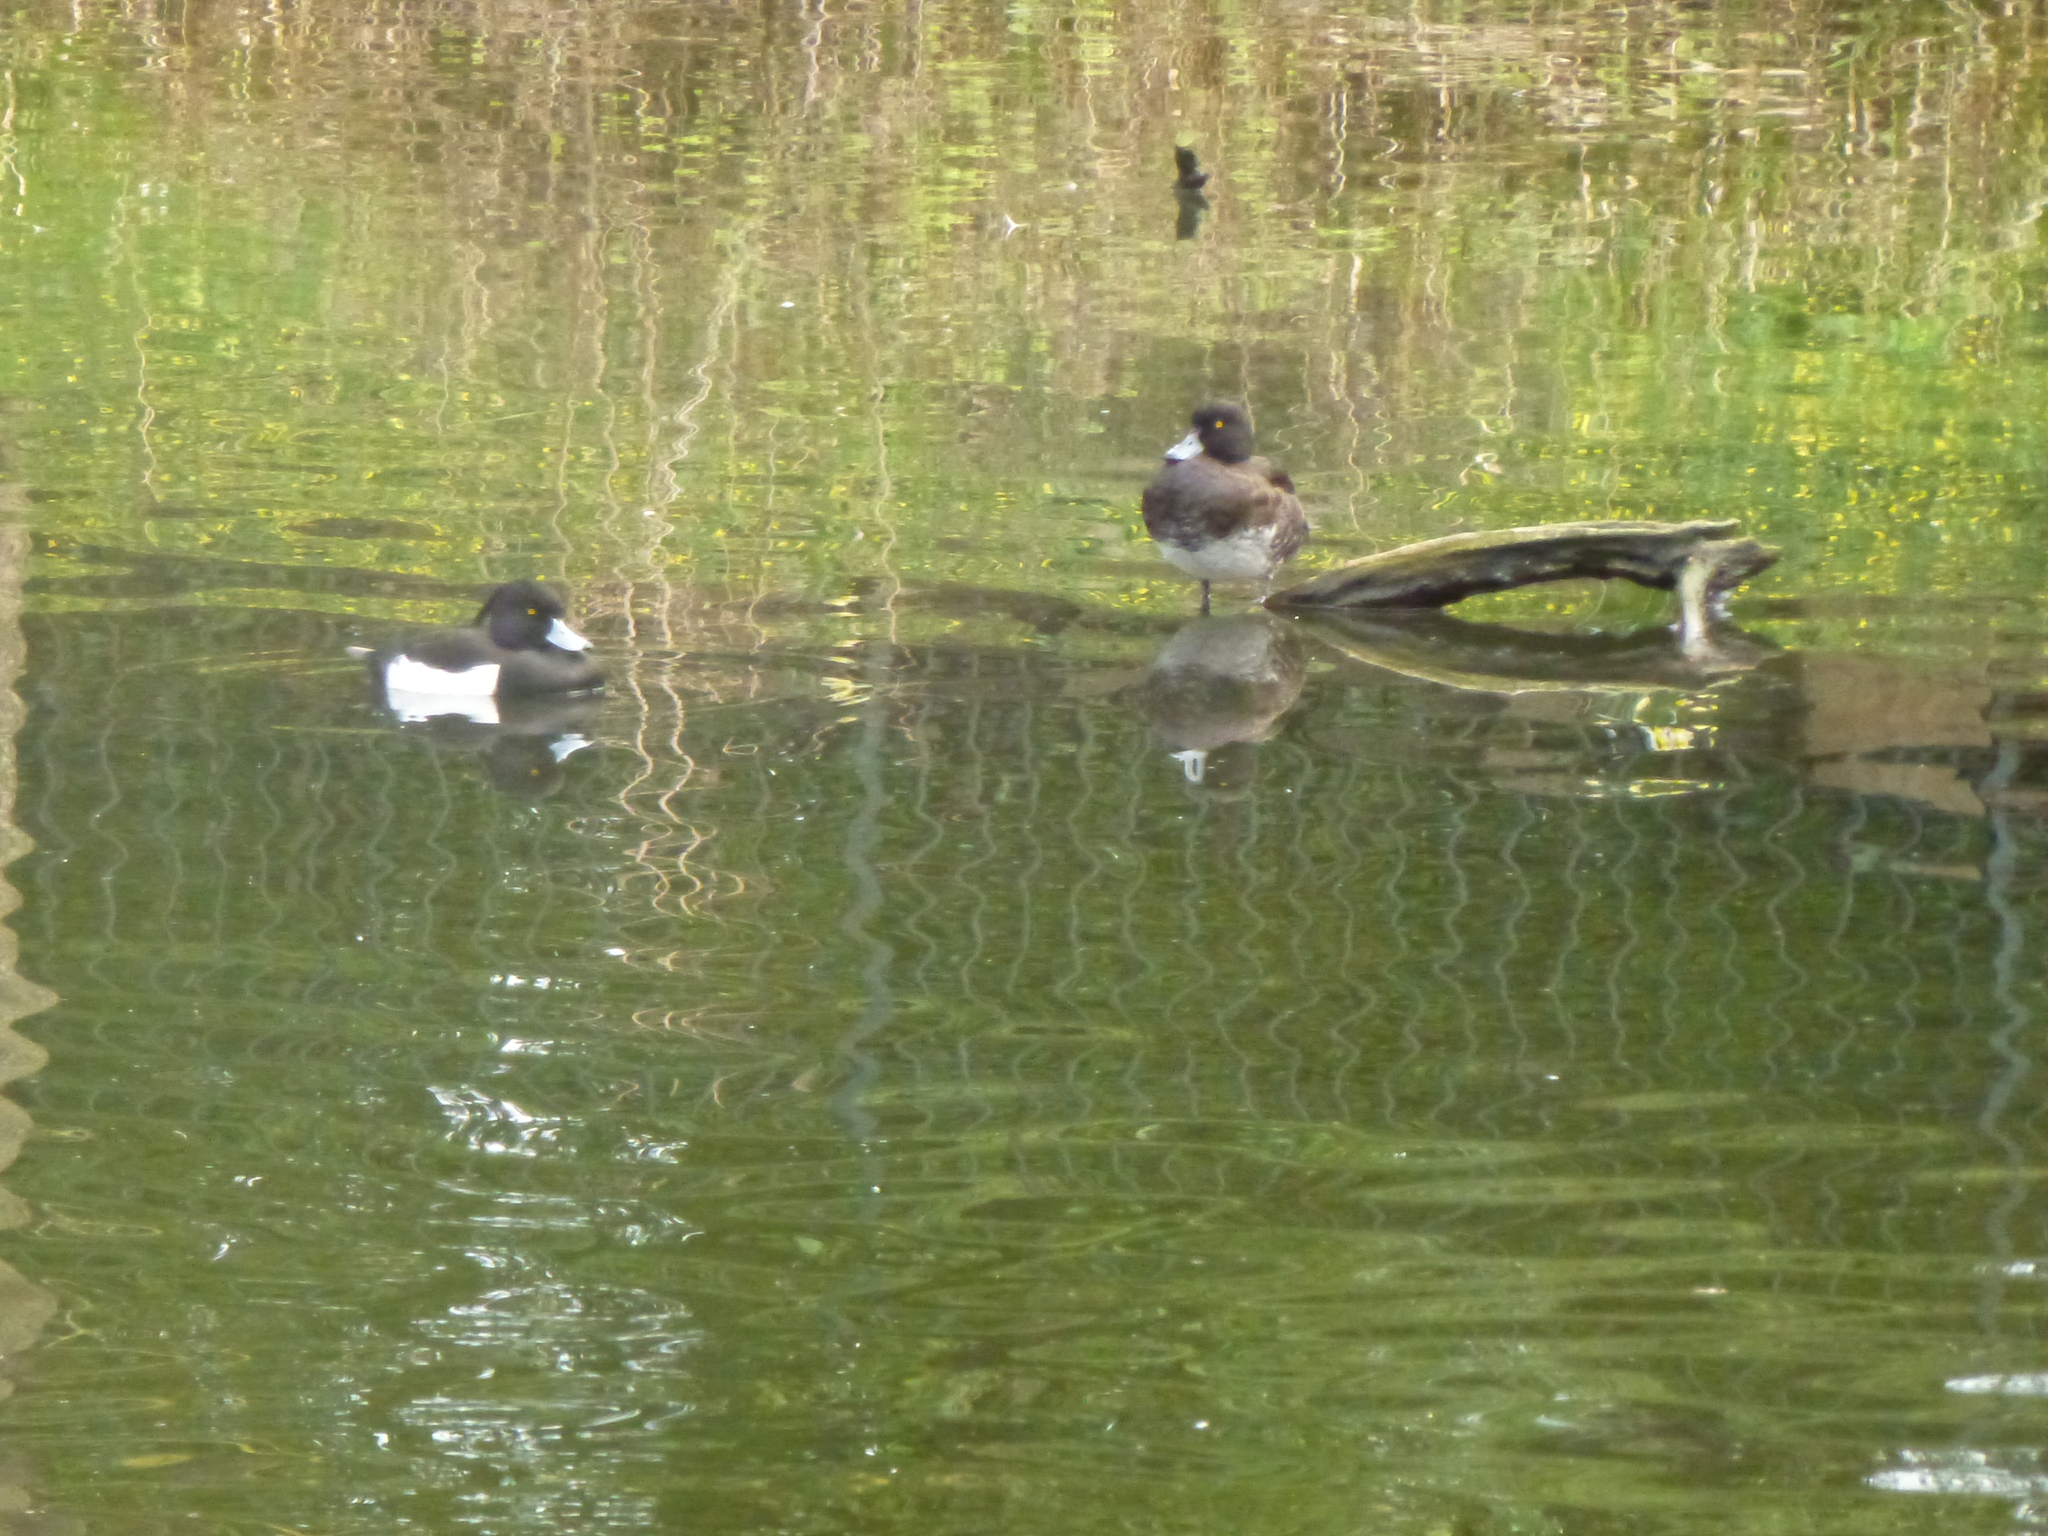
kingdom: Animalia
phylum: Chordata
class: Aves
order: Anseriformes
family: Anatidae
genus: Aythya
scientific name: Aythya fuligula
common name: Tufted duck
